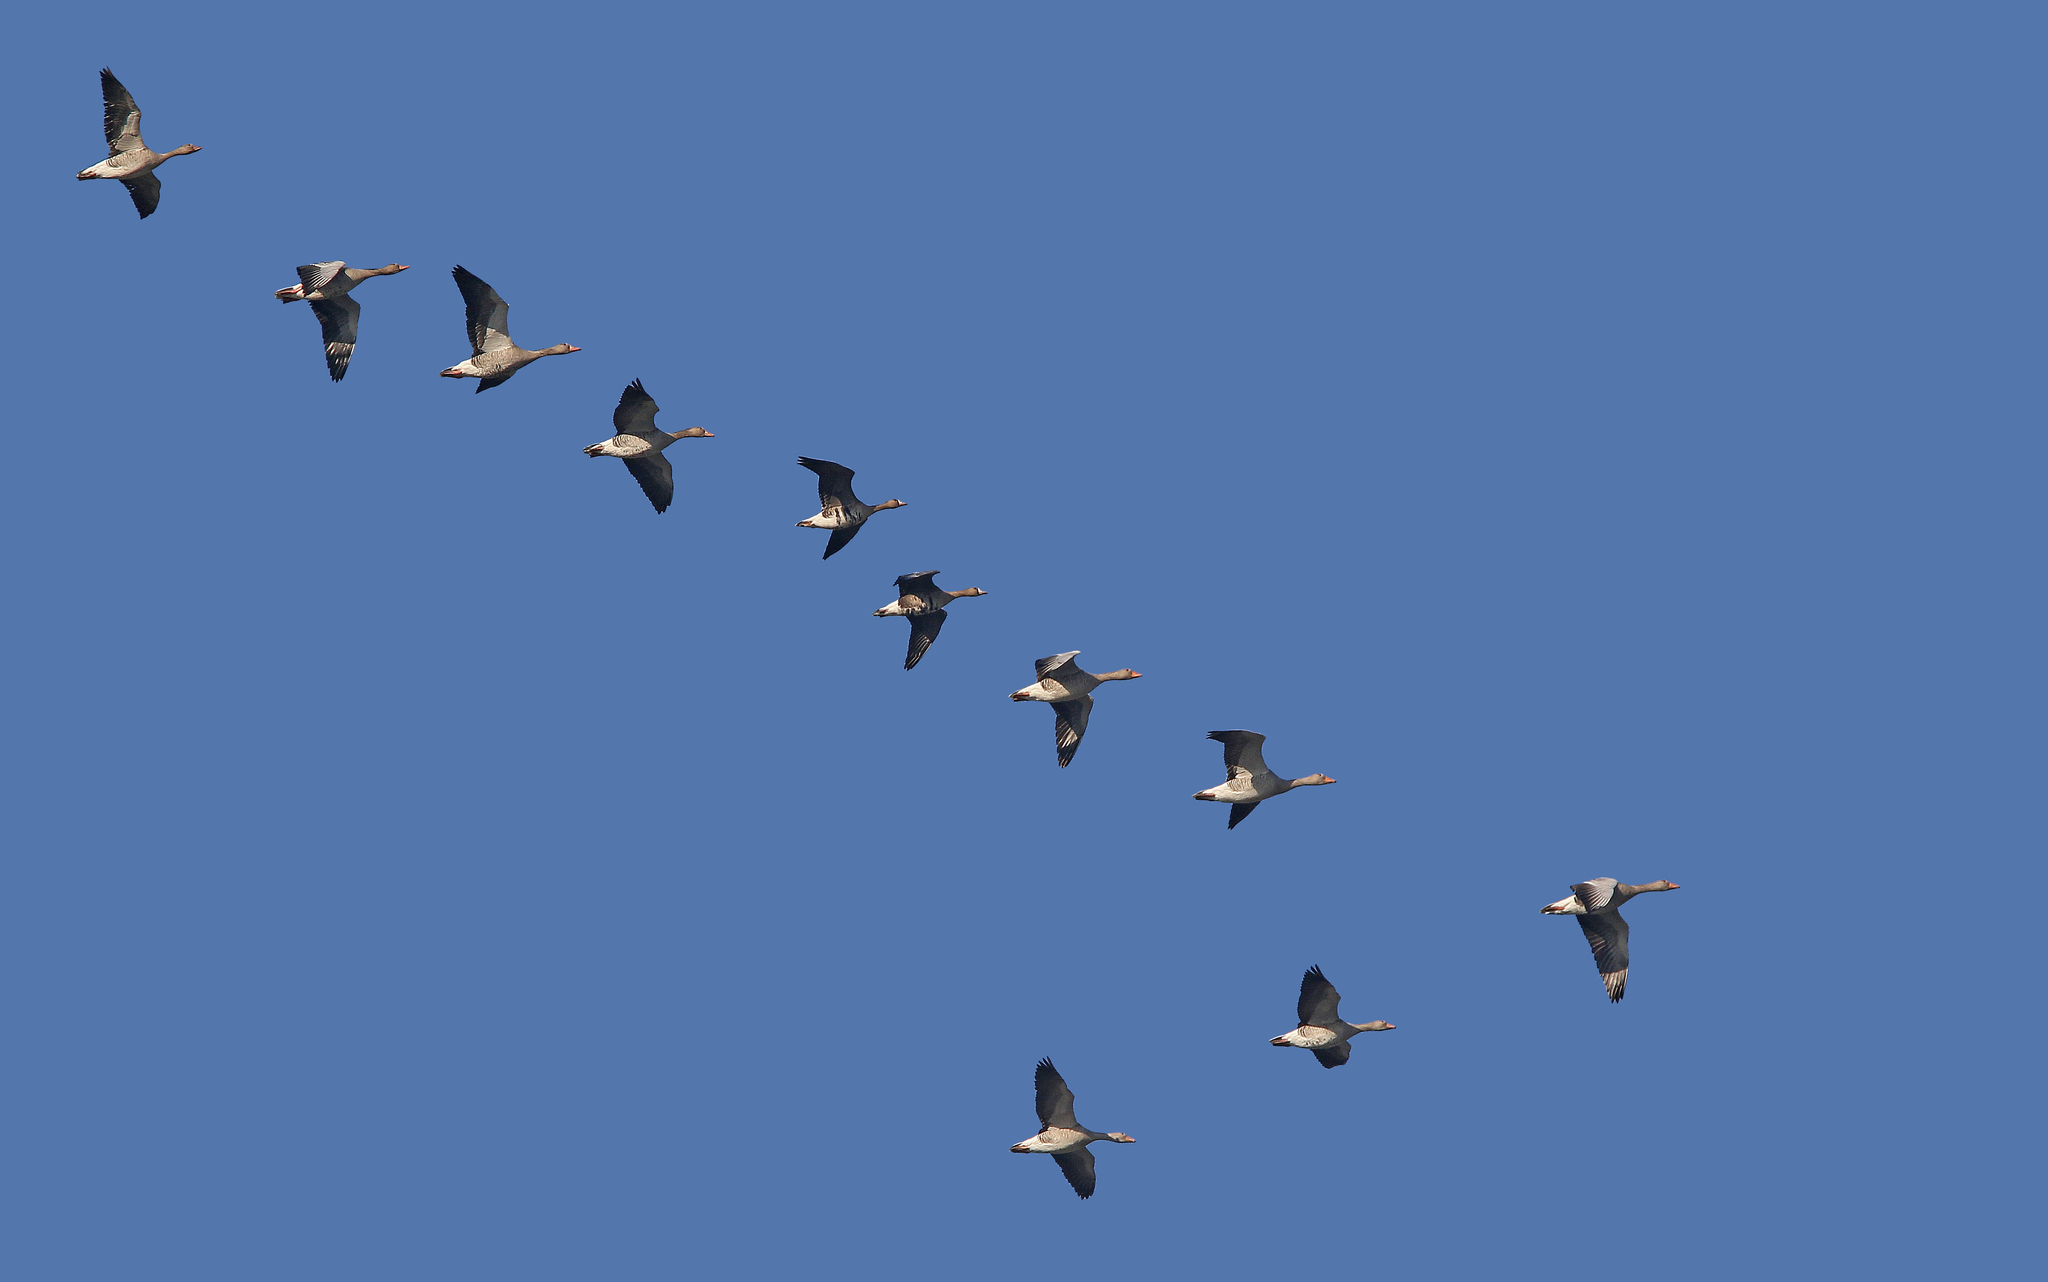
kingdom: Animalia
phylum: Chordata
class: Aves
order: Anseriformes
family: Anatidae
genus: Anser
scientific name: Anser albifrons
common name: Greater white-fronted goose
